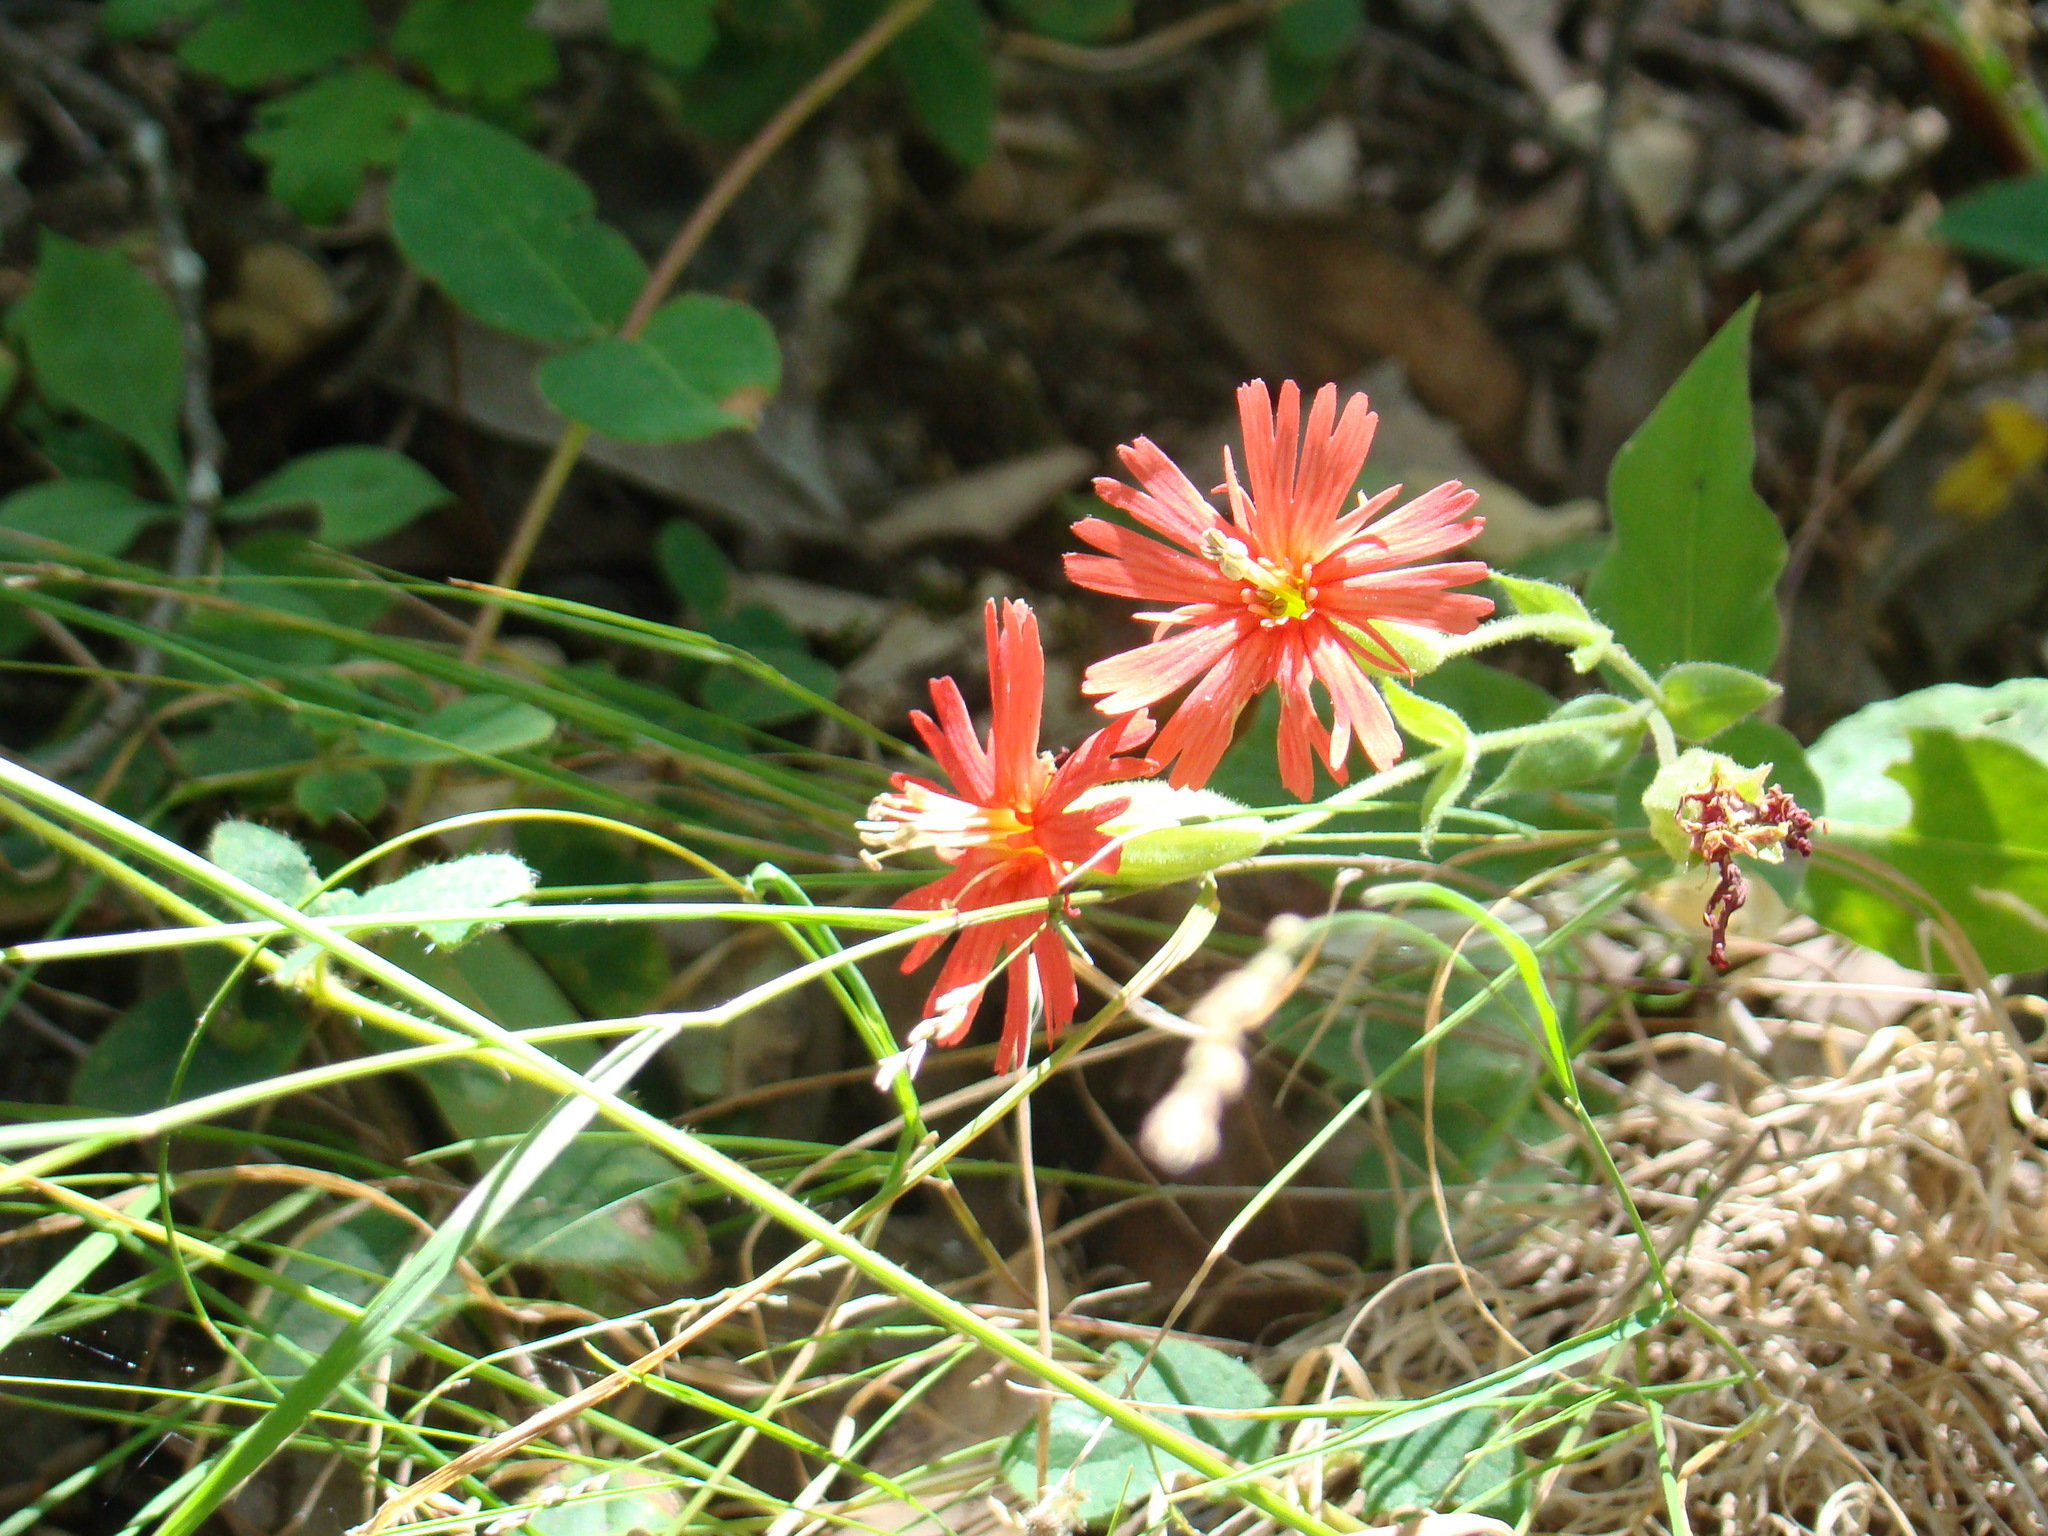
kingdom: Plantae
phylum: Tracheophyta
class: Magnoliopsida
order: Caryophyllales
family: Caryophyllaceae
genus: Silene
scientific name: Silene laciniata
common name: Indian-pink
